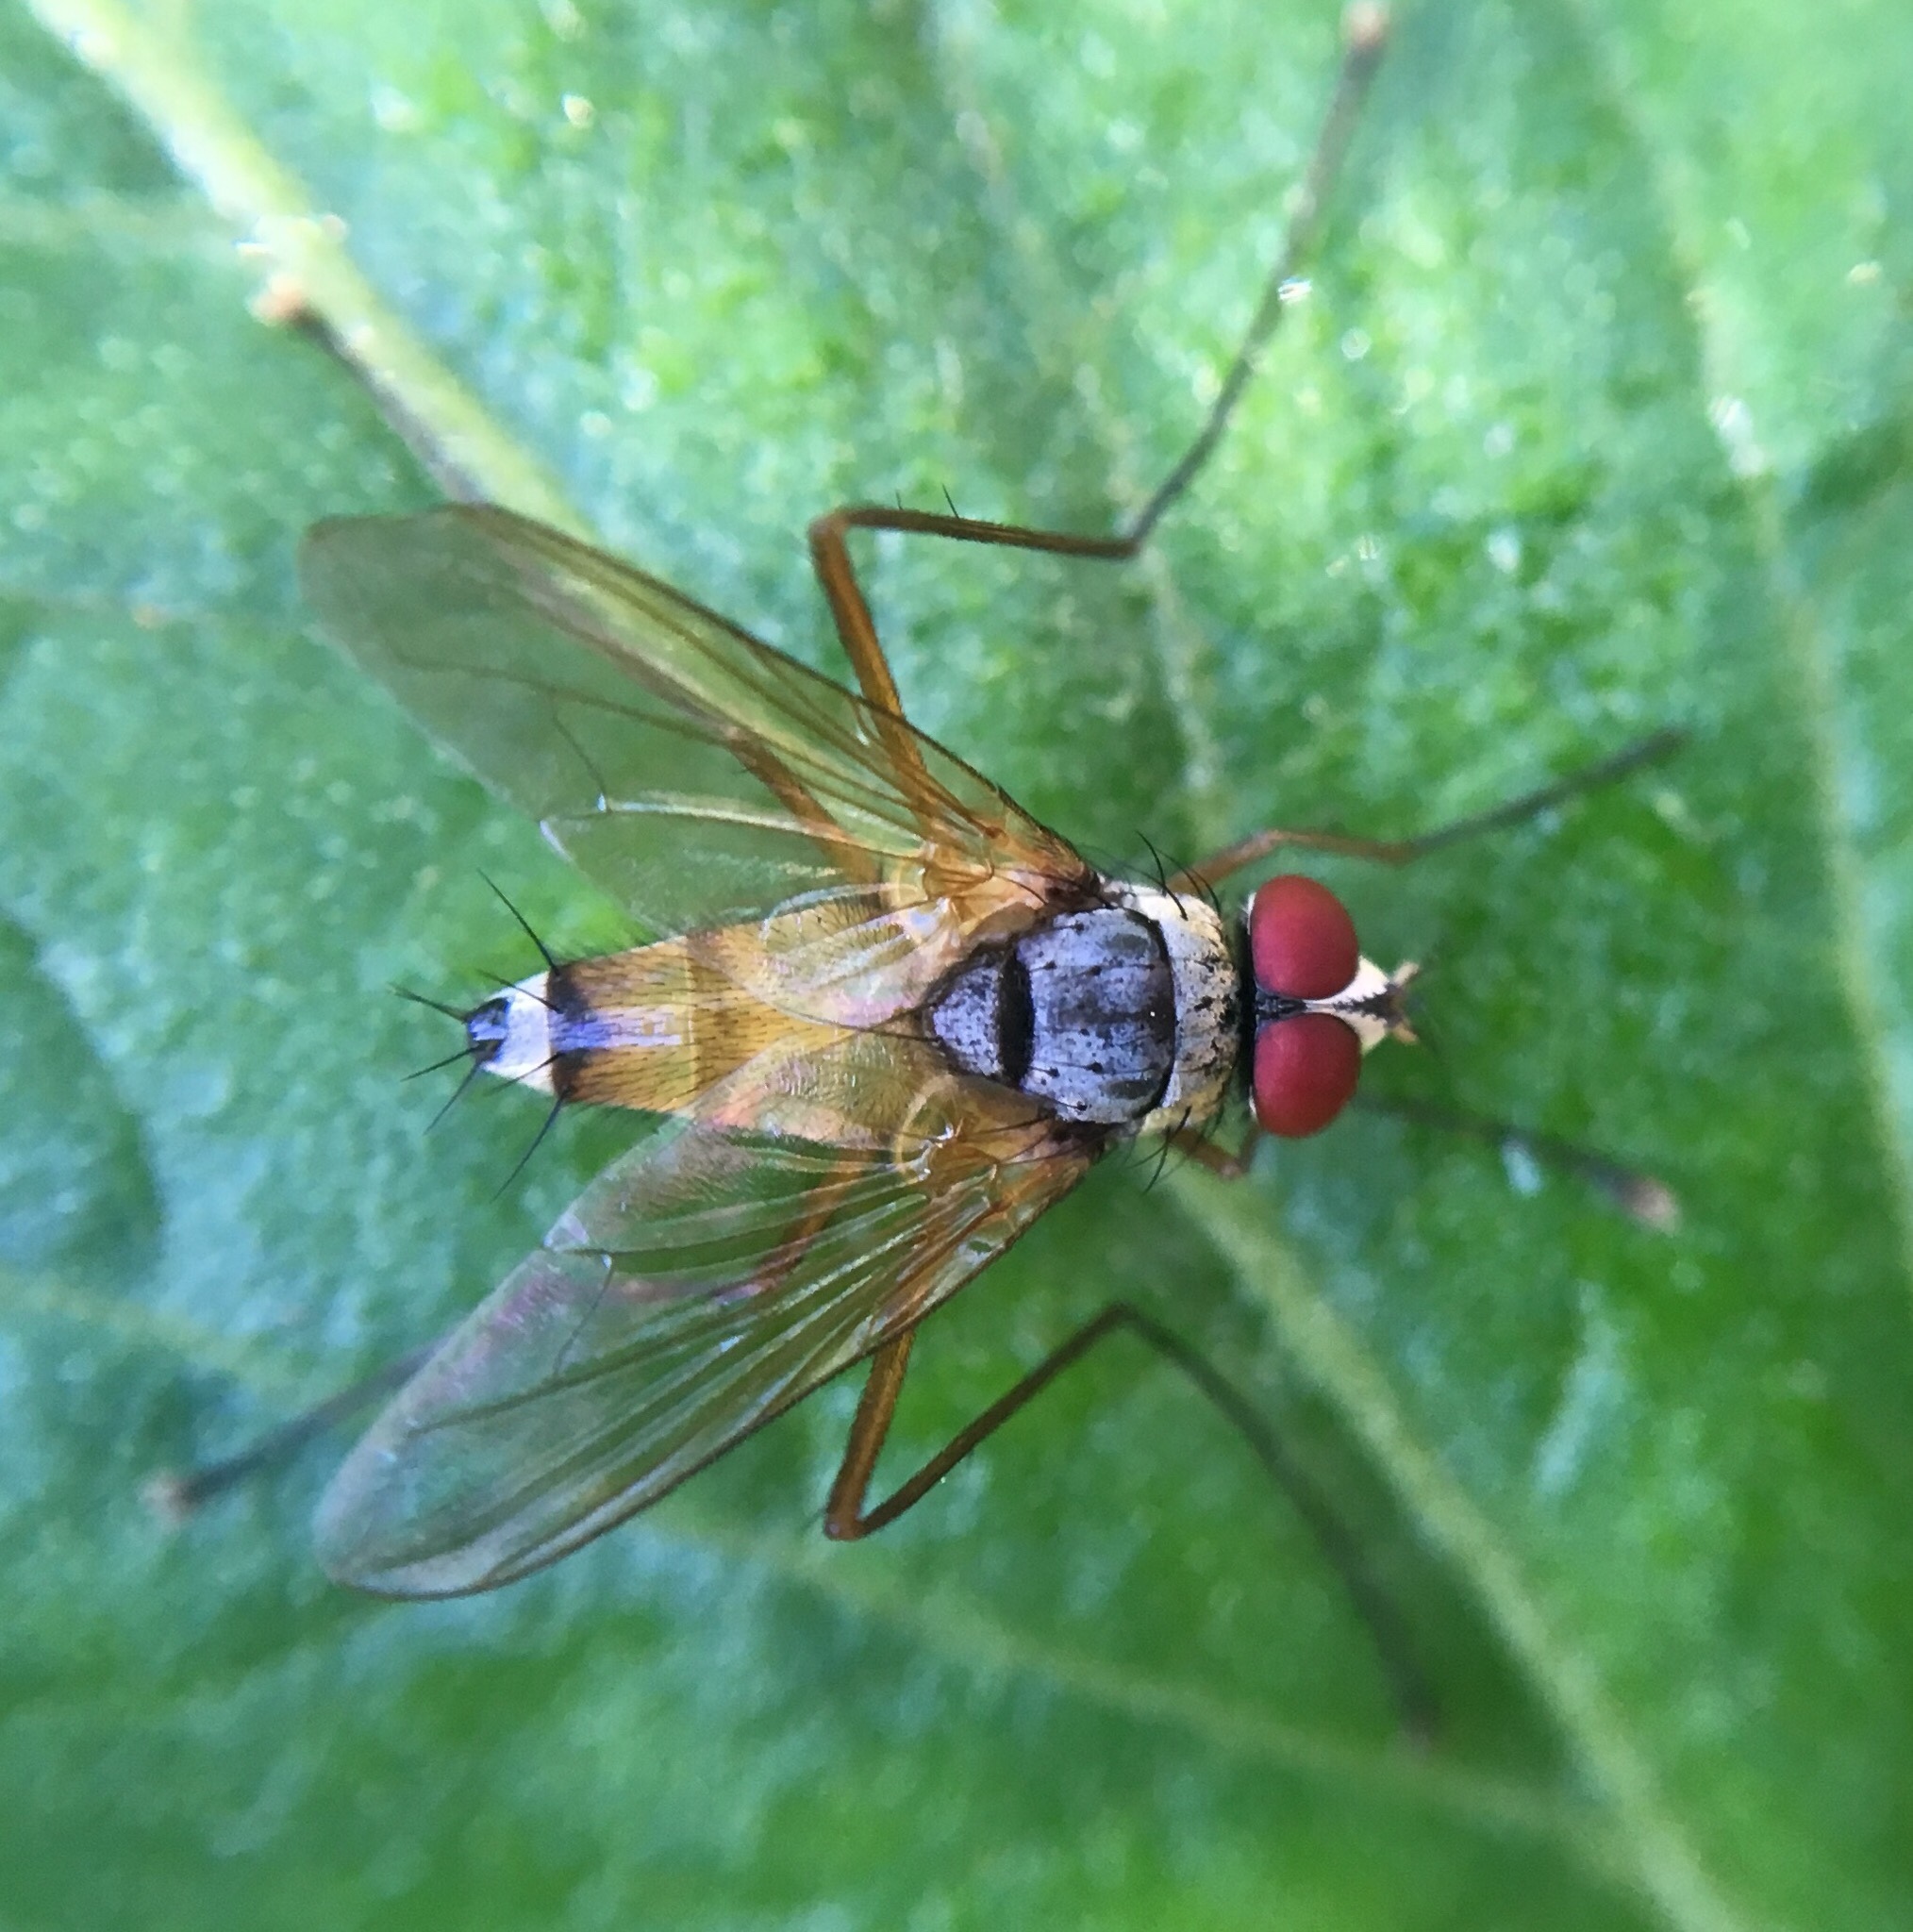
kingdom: Animalia
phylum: Arthropoda
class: Insecta
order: Diptera
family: Tachinidae
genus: Cholomyia
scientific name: Cholomyia inaequipes
